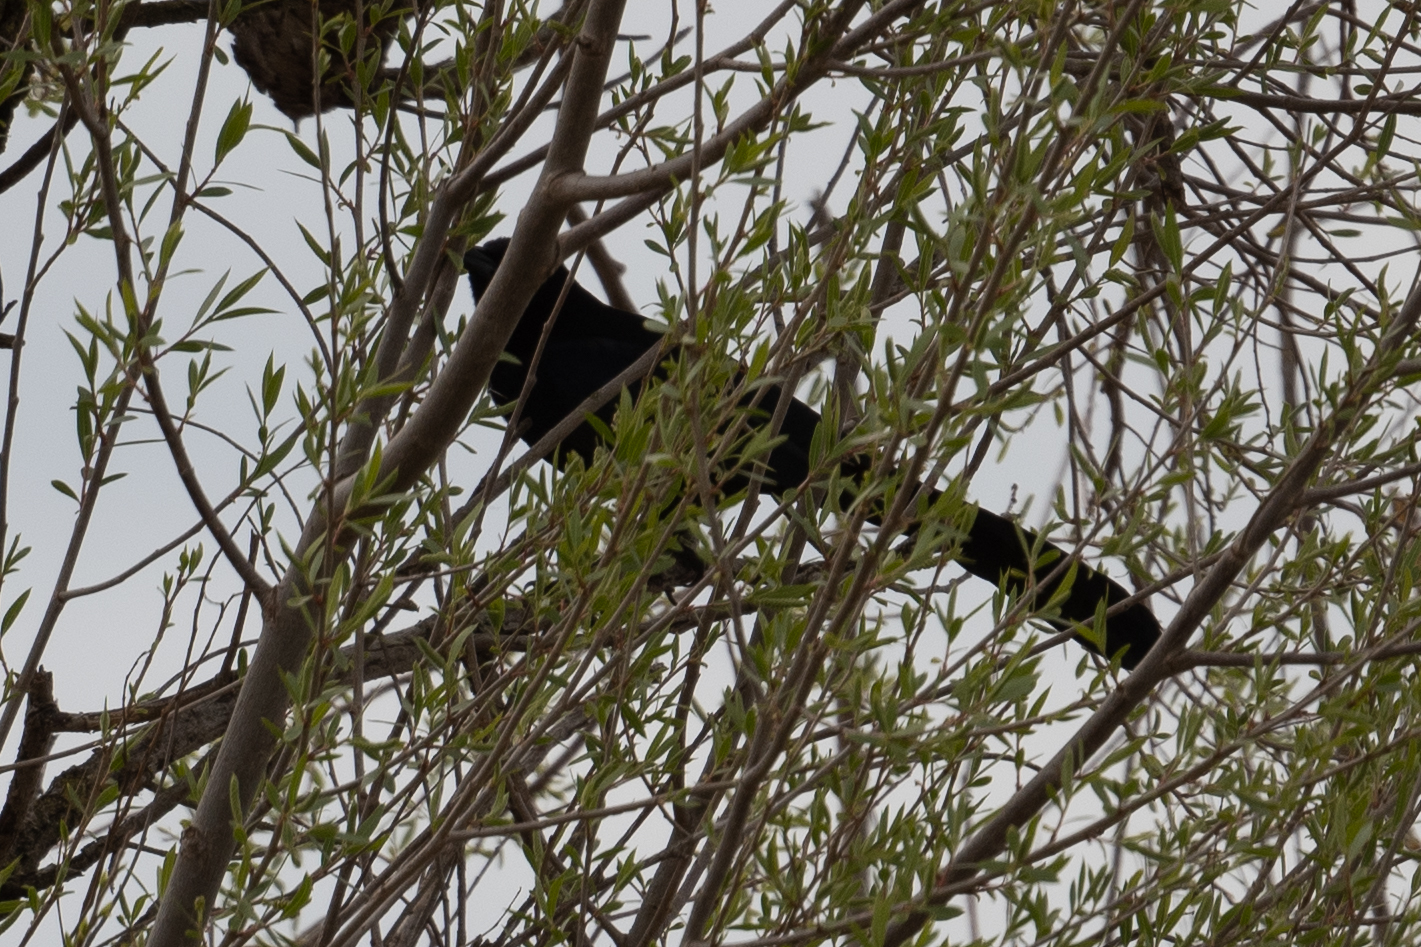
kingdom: Animalia
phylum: Chordata
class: Aves
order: Passeriformes
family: Icteridae
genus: Quiscalus
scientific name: Quiscalus mexicanus
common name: Great-tailed grackle
